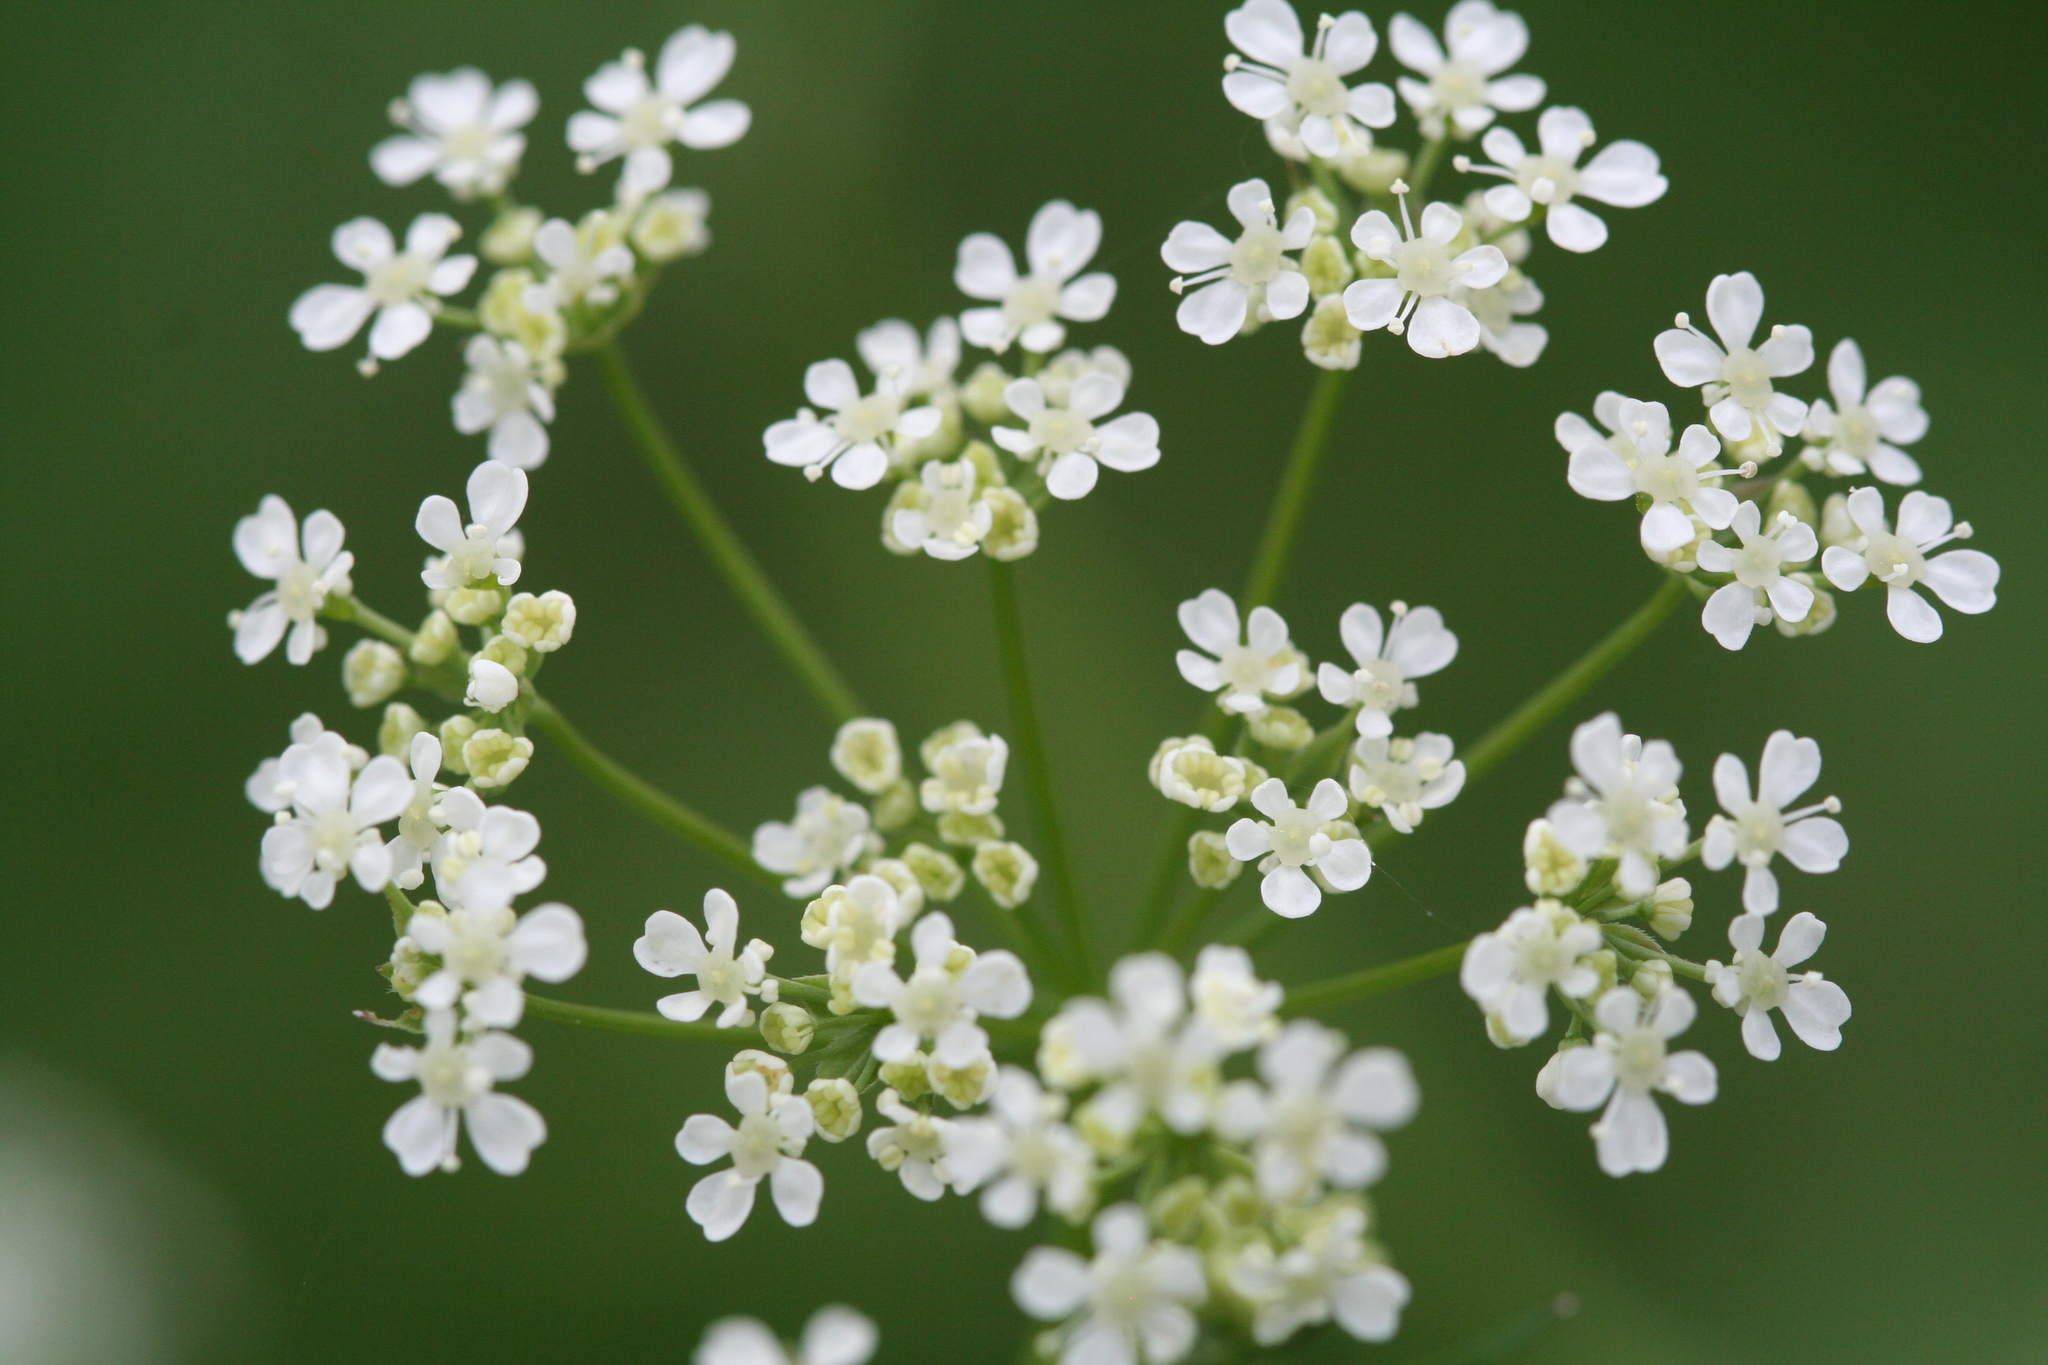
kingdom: Plantae
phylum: Tracheophyta
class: Magnoliopsida
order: Apiales
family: Apiaceae
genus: Anthriscus
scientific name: Anthriscus sylvestris
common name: Cow parsley
